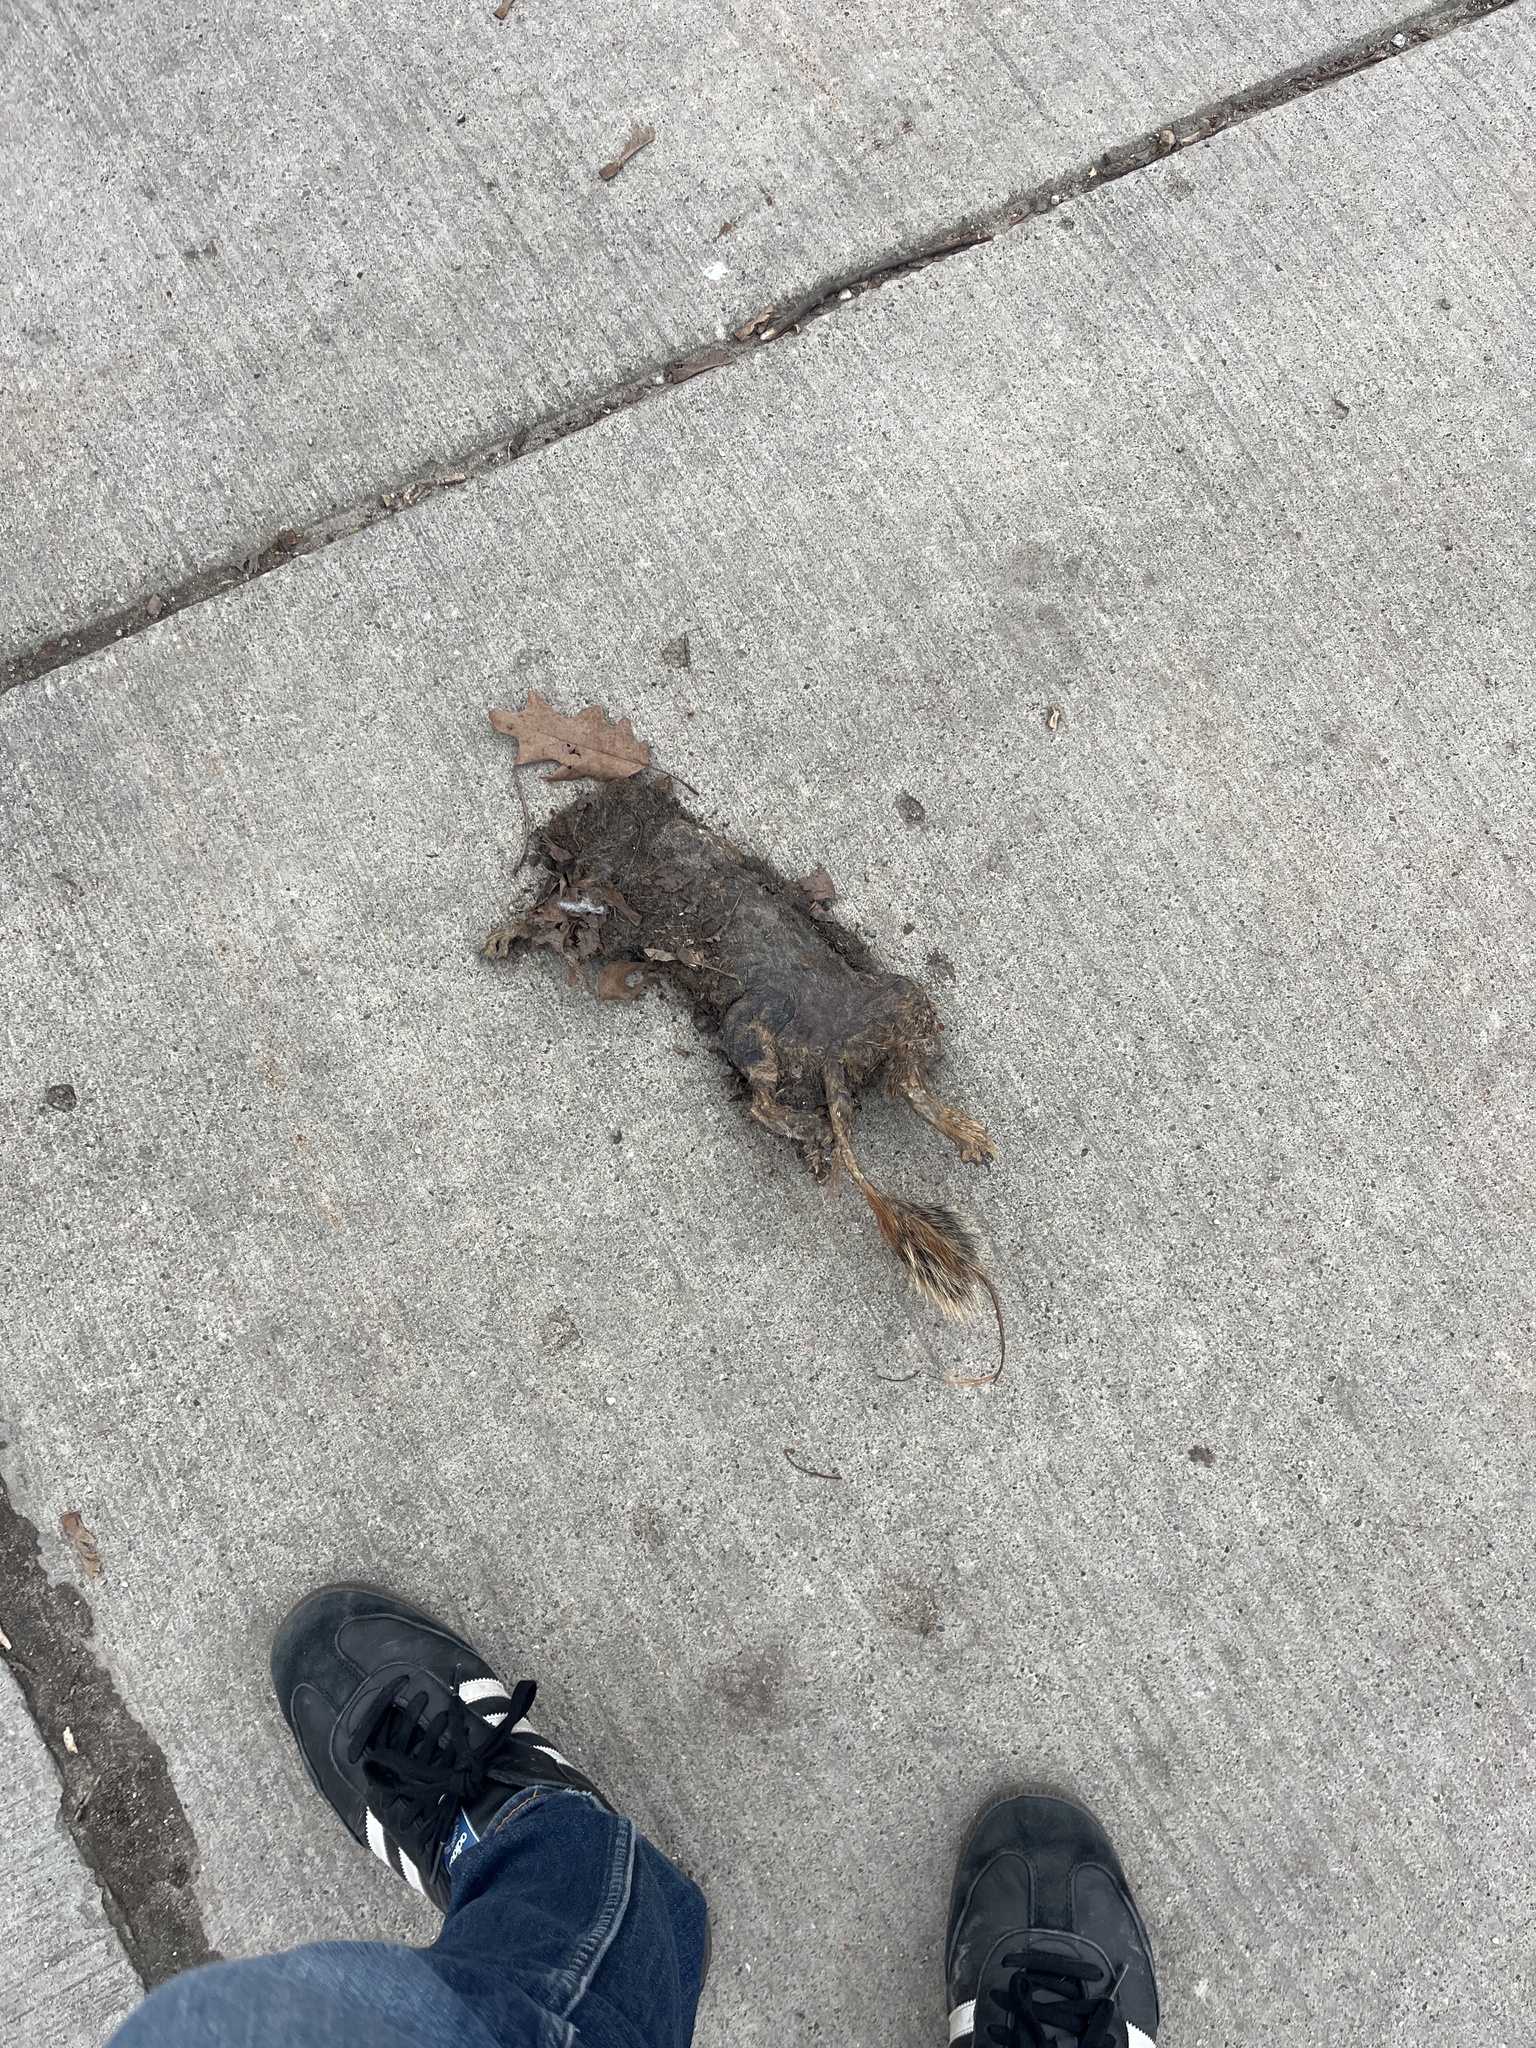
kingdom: Animalia
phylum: Chordata
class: Mammalia
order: Rodentia
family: Sciuridae
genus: Sciurus
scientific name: Sciurus niger
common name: Fox squirrel
